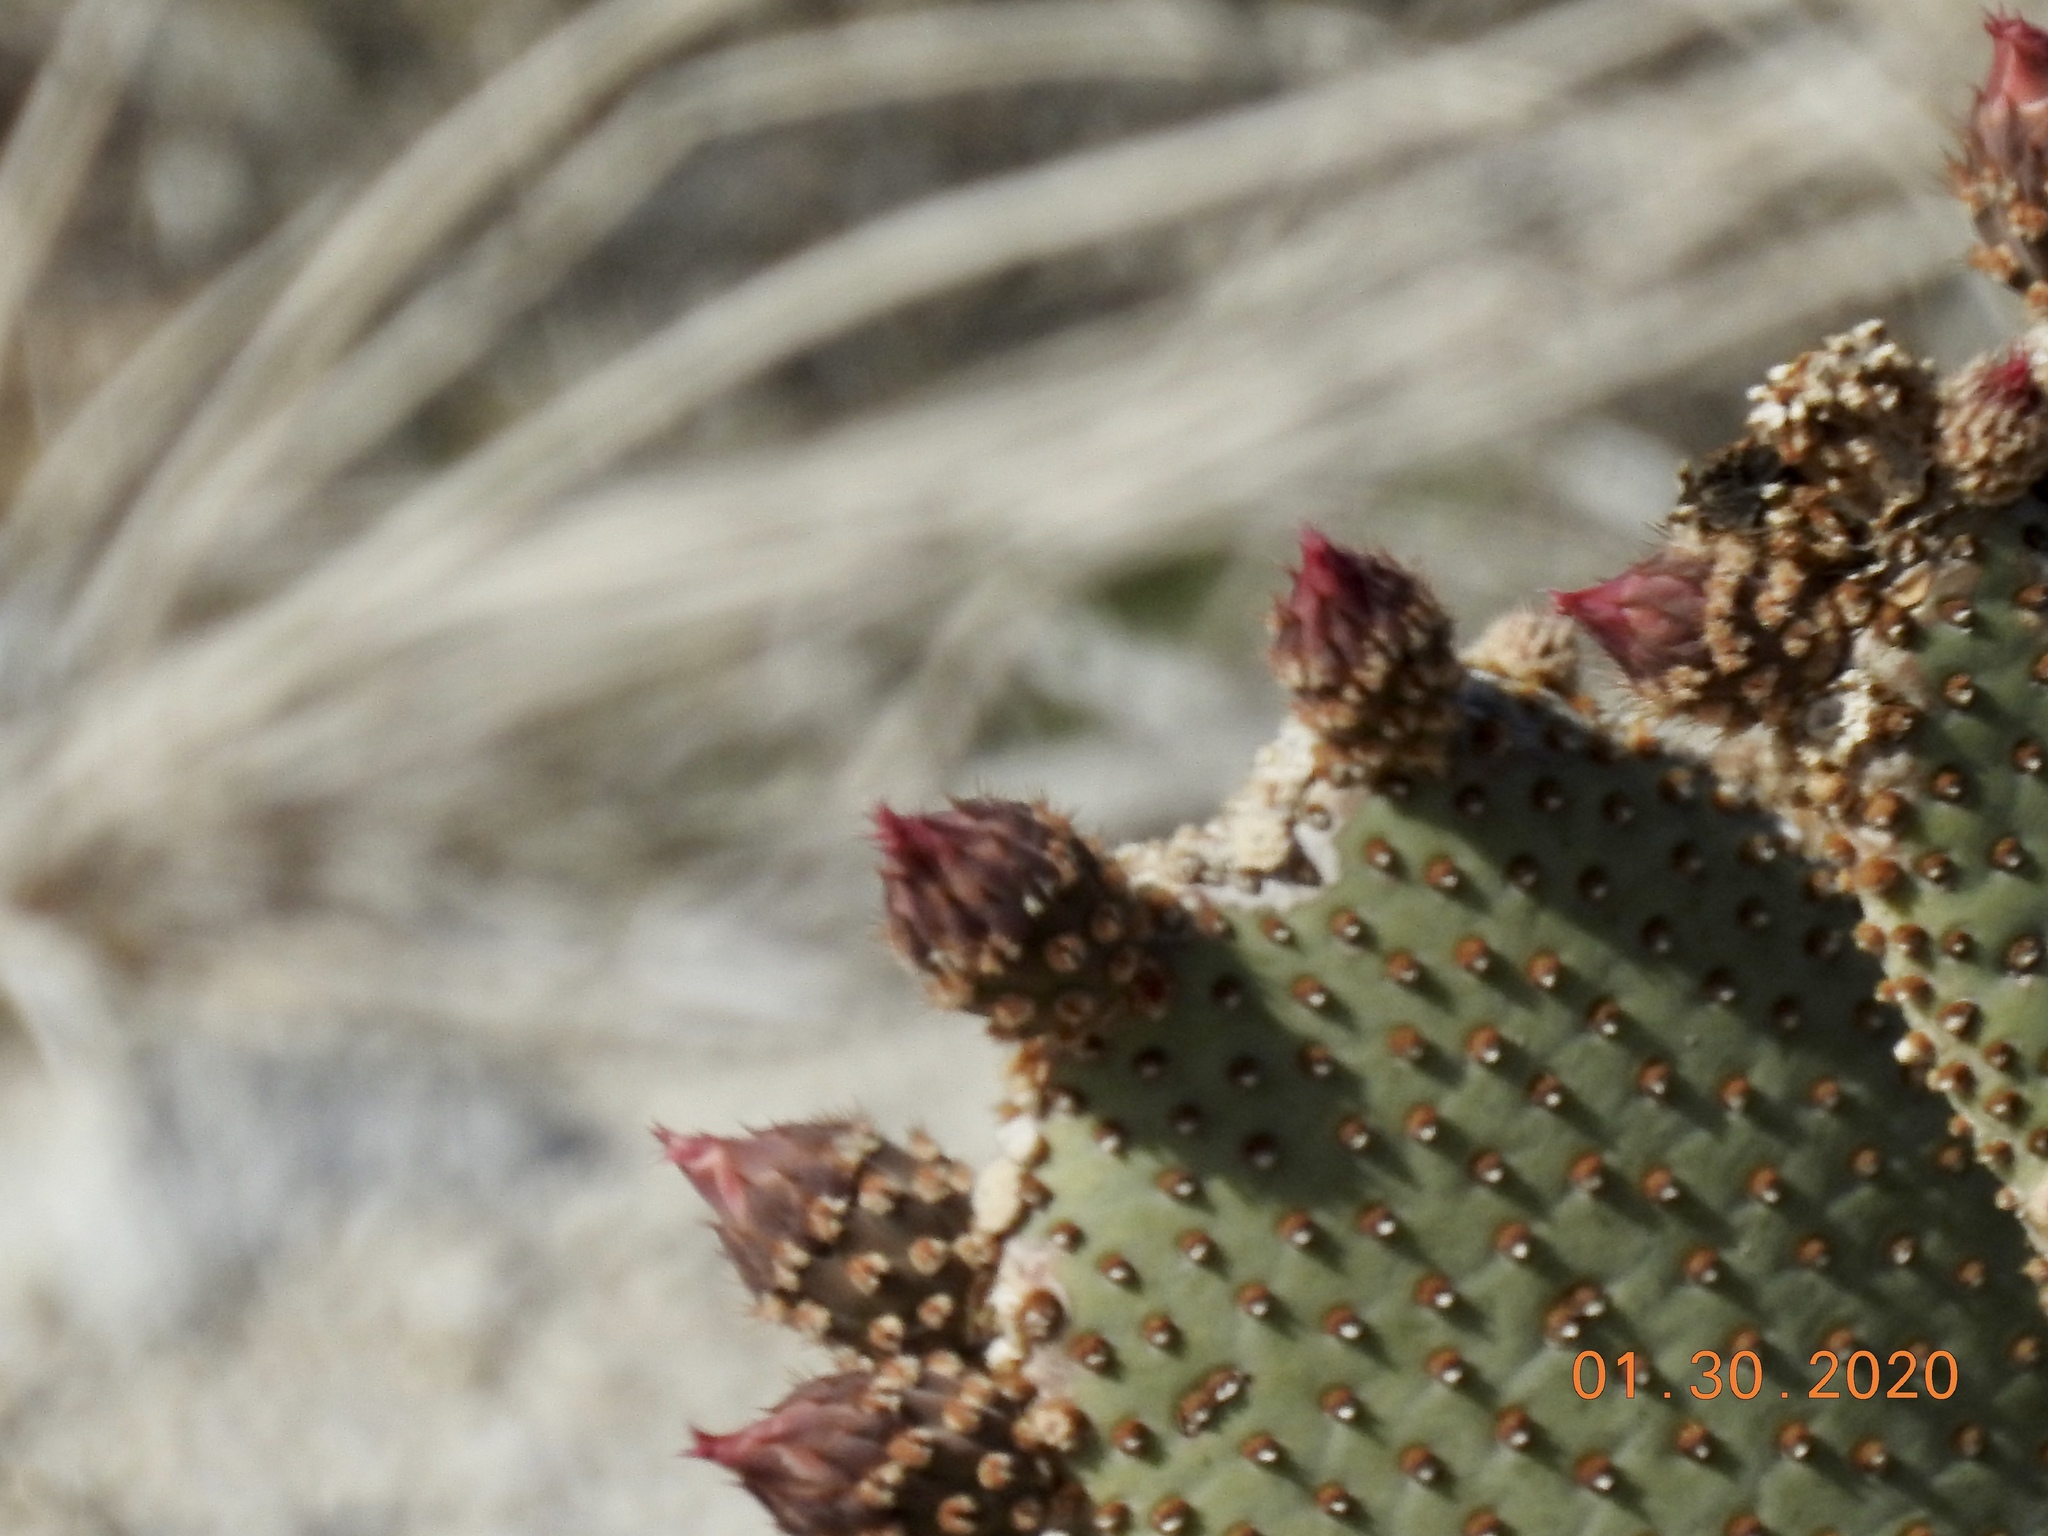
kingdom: Plantae
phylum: Tracheophyta
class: Magnoliopsida
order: Caryophyllales
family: Cactaceae
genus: Opuntia
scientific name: Opuntia basilaris
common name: Beavertail prickly-pear
